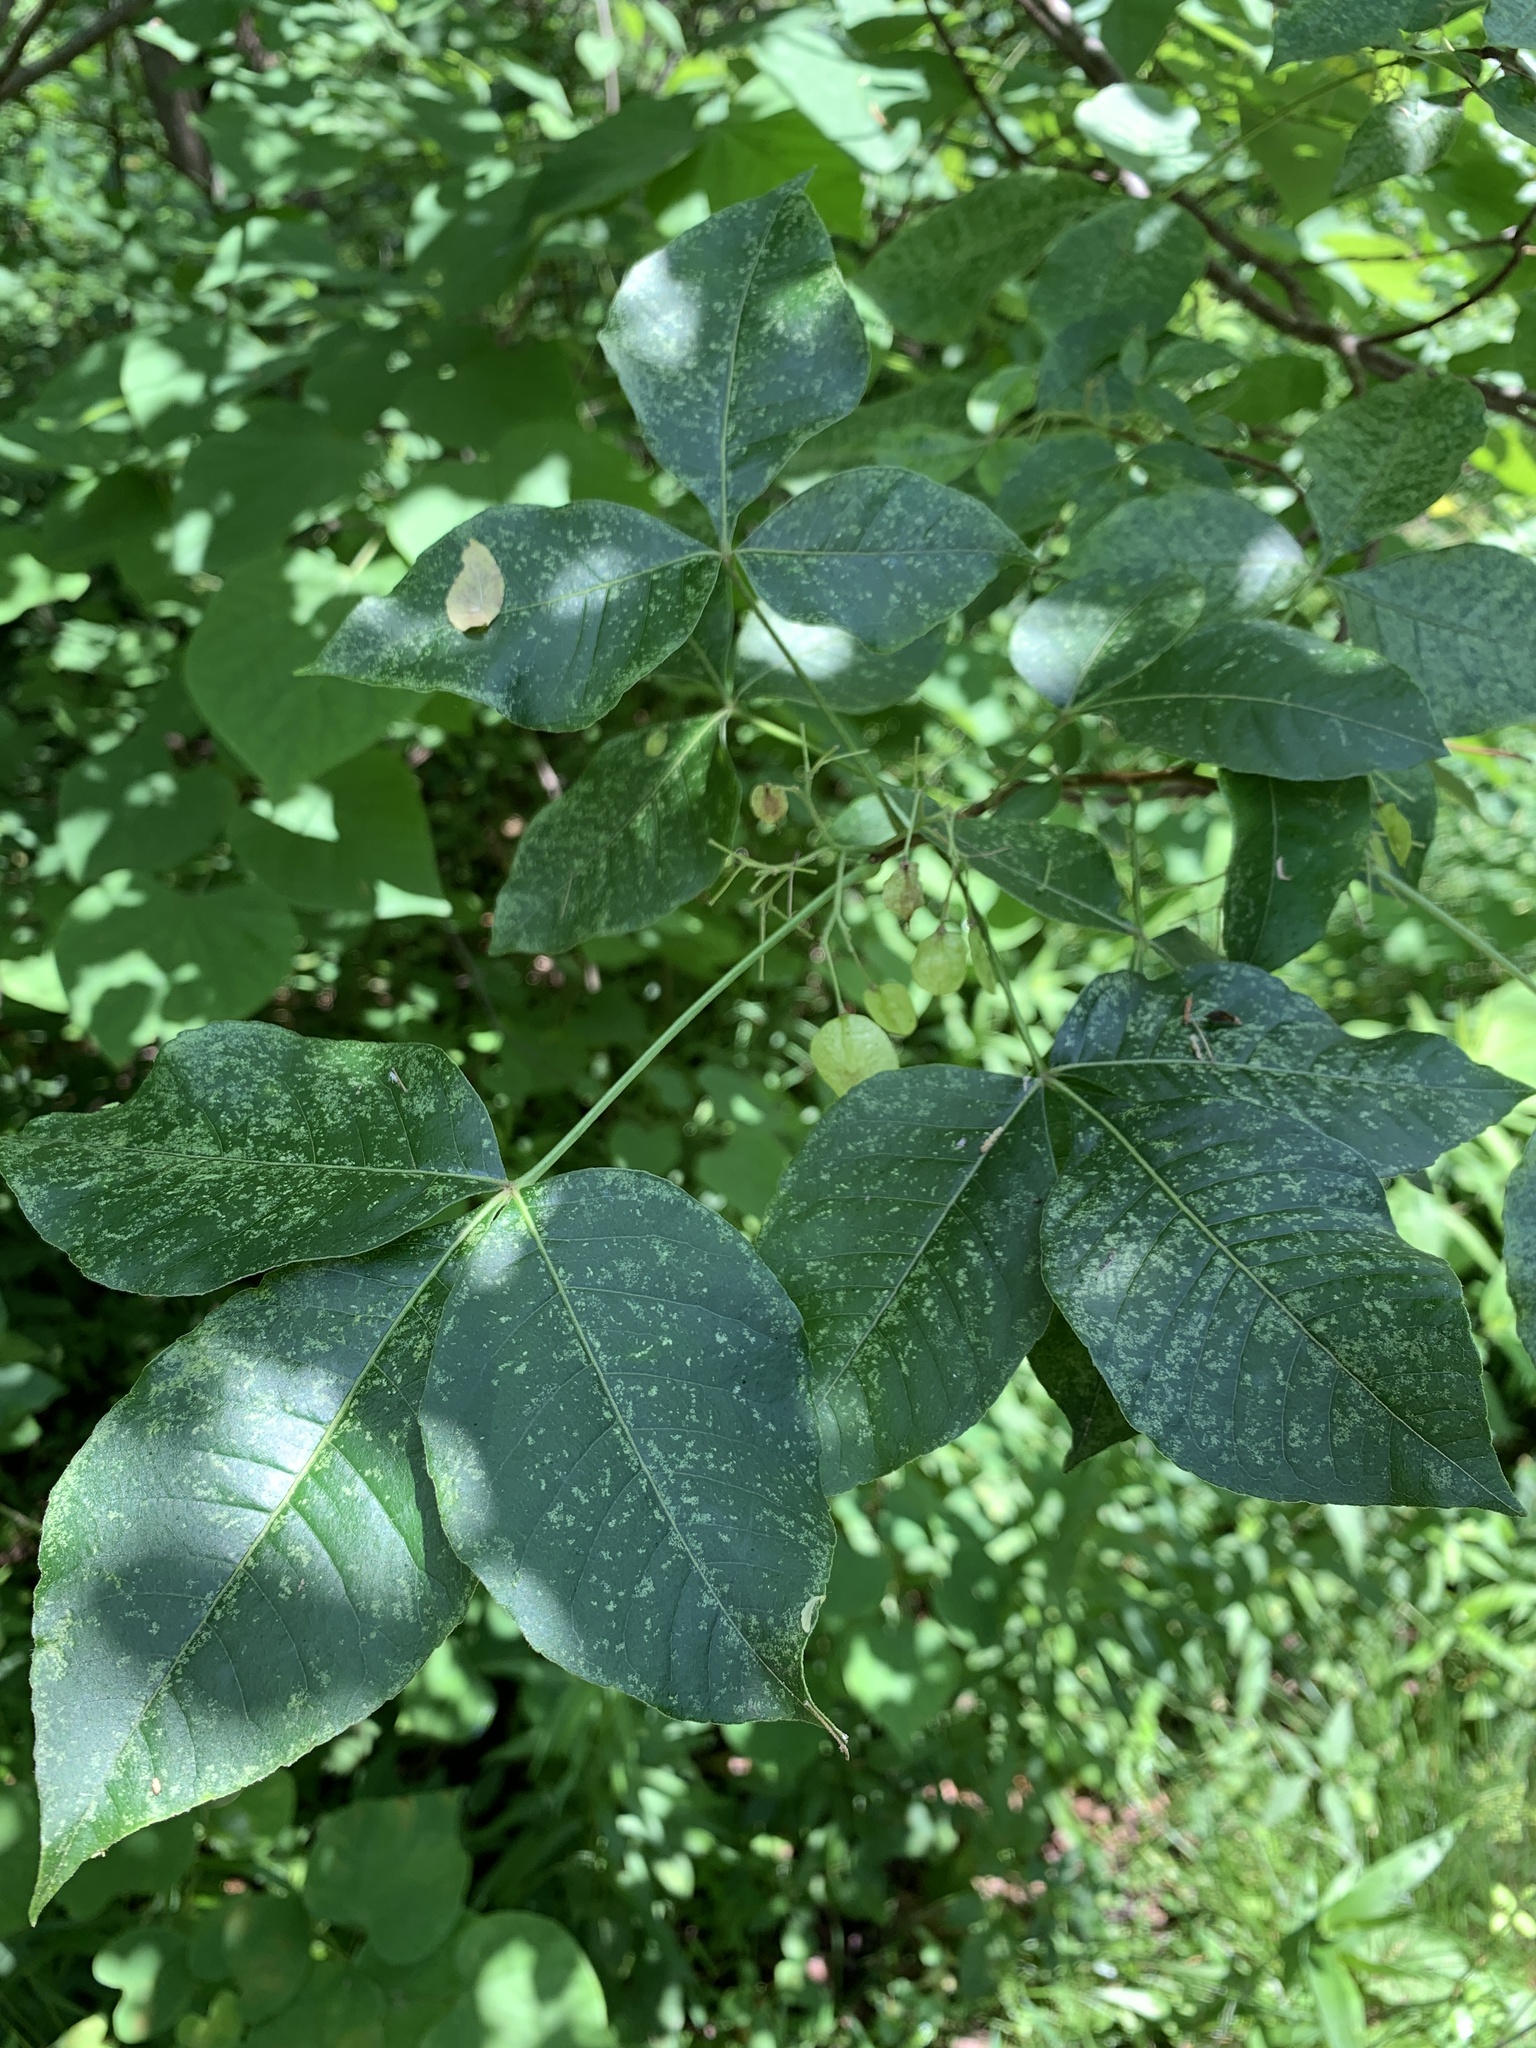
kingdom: Plantae
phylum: Tracheophyta
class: Magnoliopsida
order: Sapindales
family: Rutaceae
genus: Ptelea
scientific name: Ptelea trifoliata
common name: Common hop-tree
